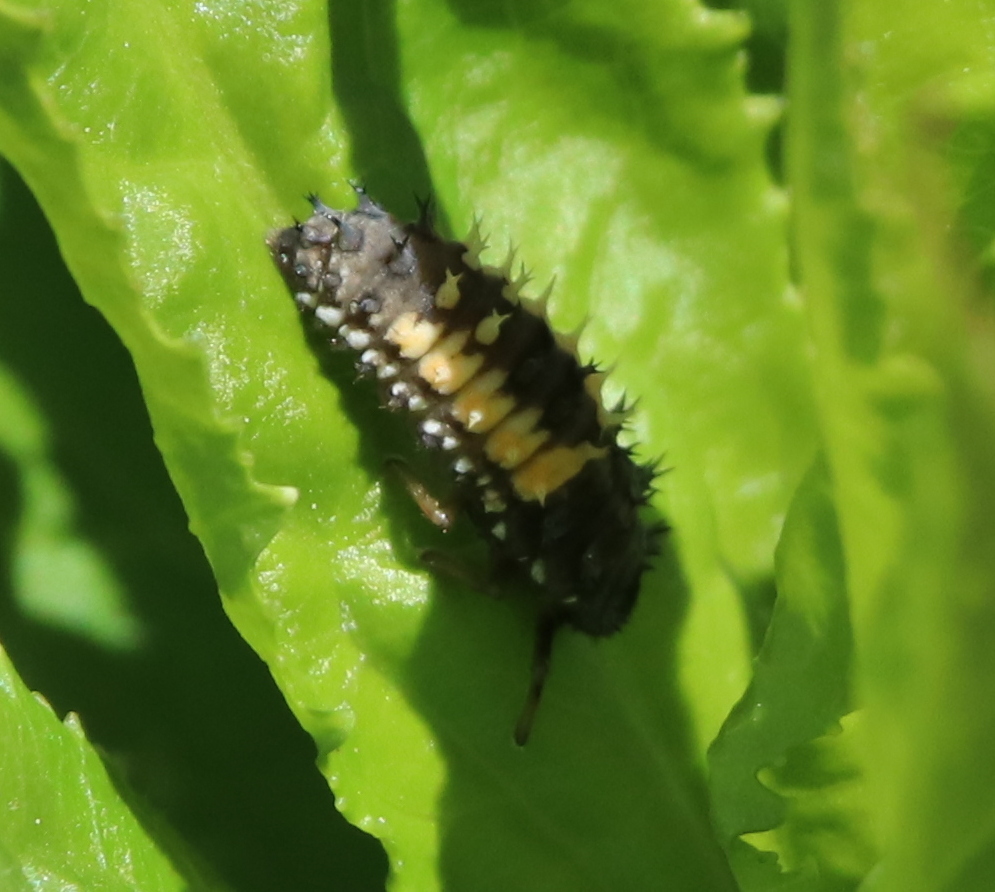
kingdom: Animalia
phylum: Arthropoda
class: Insecta
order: Coleoptera
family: Coccinellidae
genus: Harmonia
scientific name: Harmonia axyridis
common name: Harlequin ladybird
